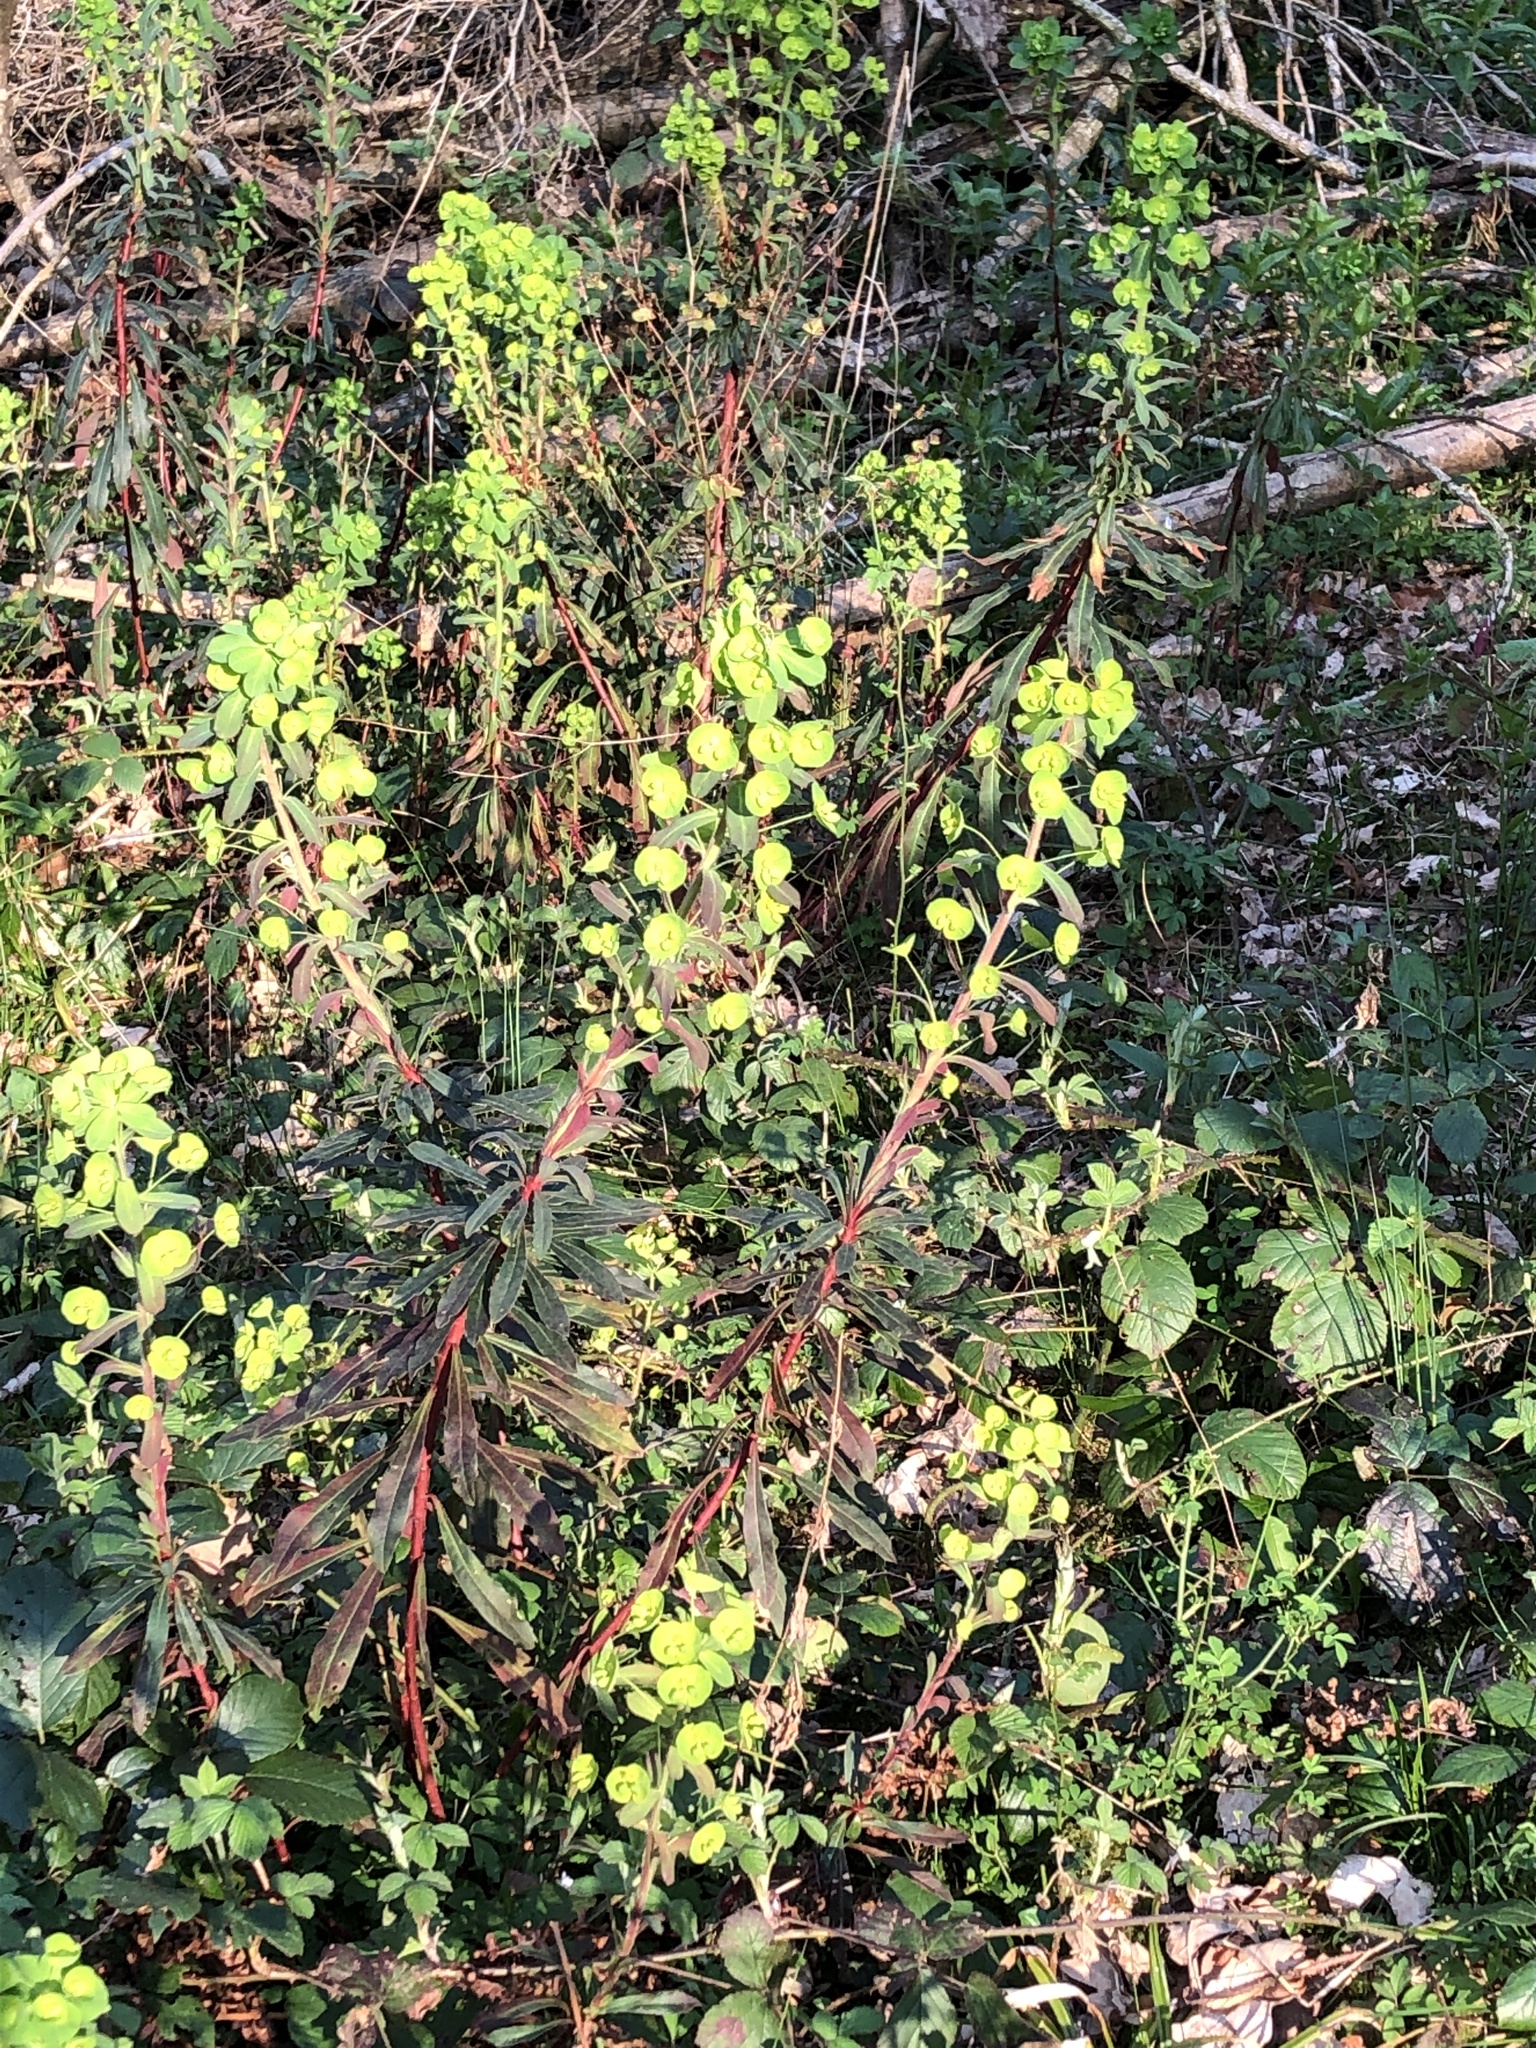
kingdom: Plantae
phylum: Tracheophyta
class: Magnoliopsida
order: Malpighiales
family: Euphorbiaceae
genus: Euphorbia
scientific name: Euphorbia amygdaloides
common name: Wood spurge
